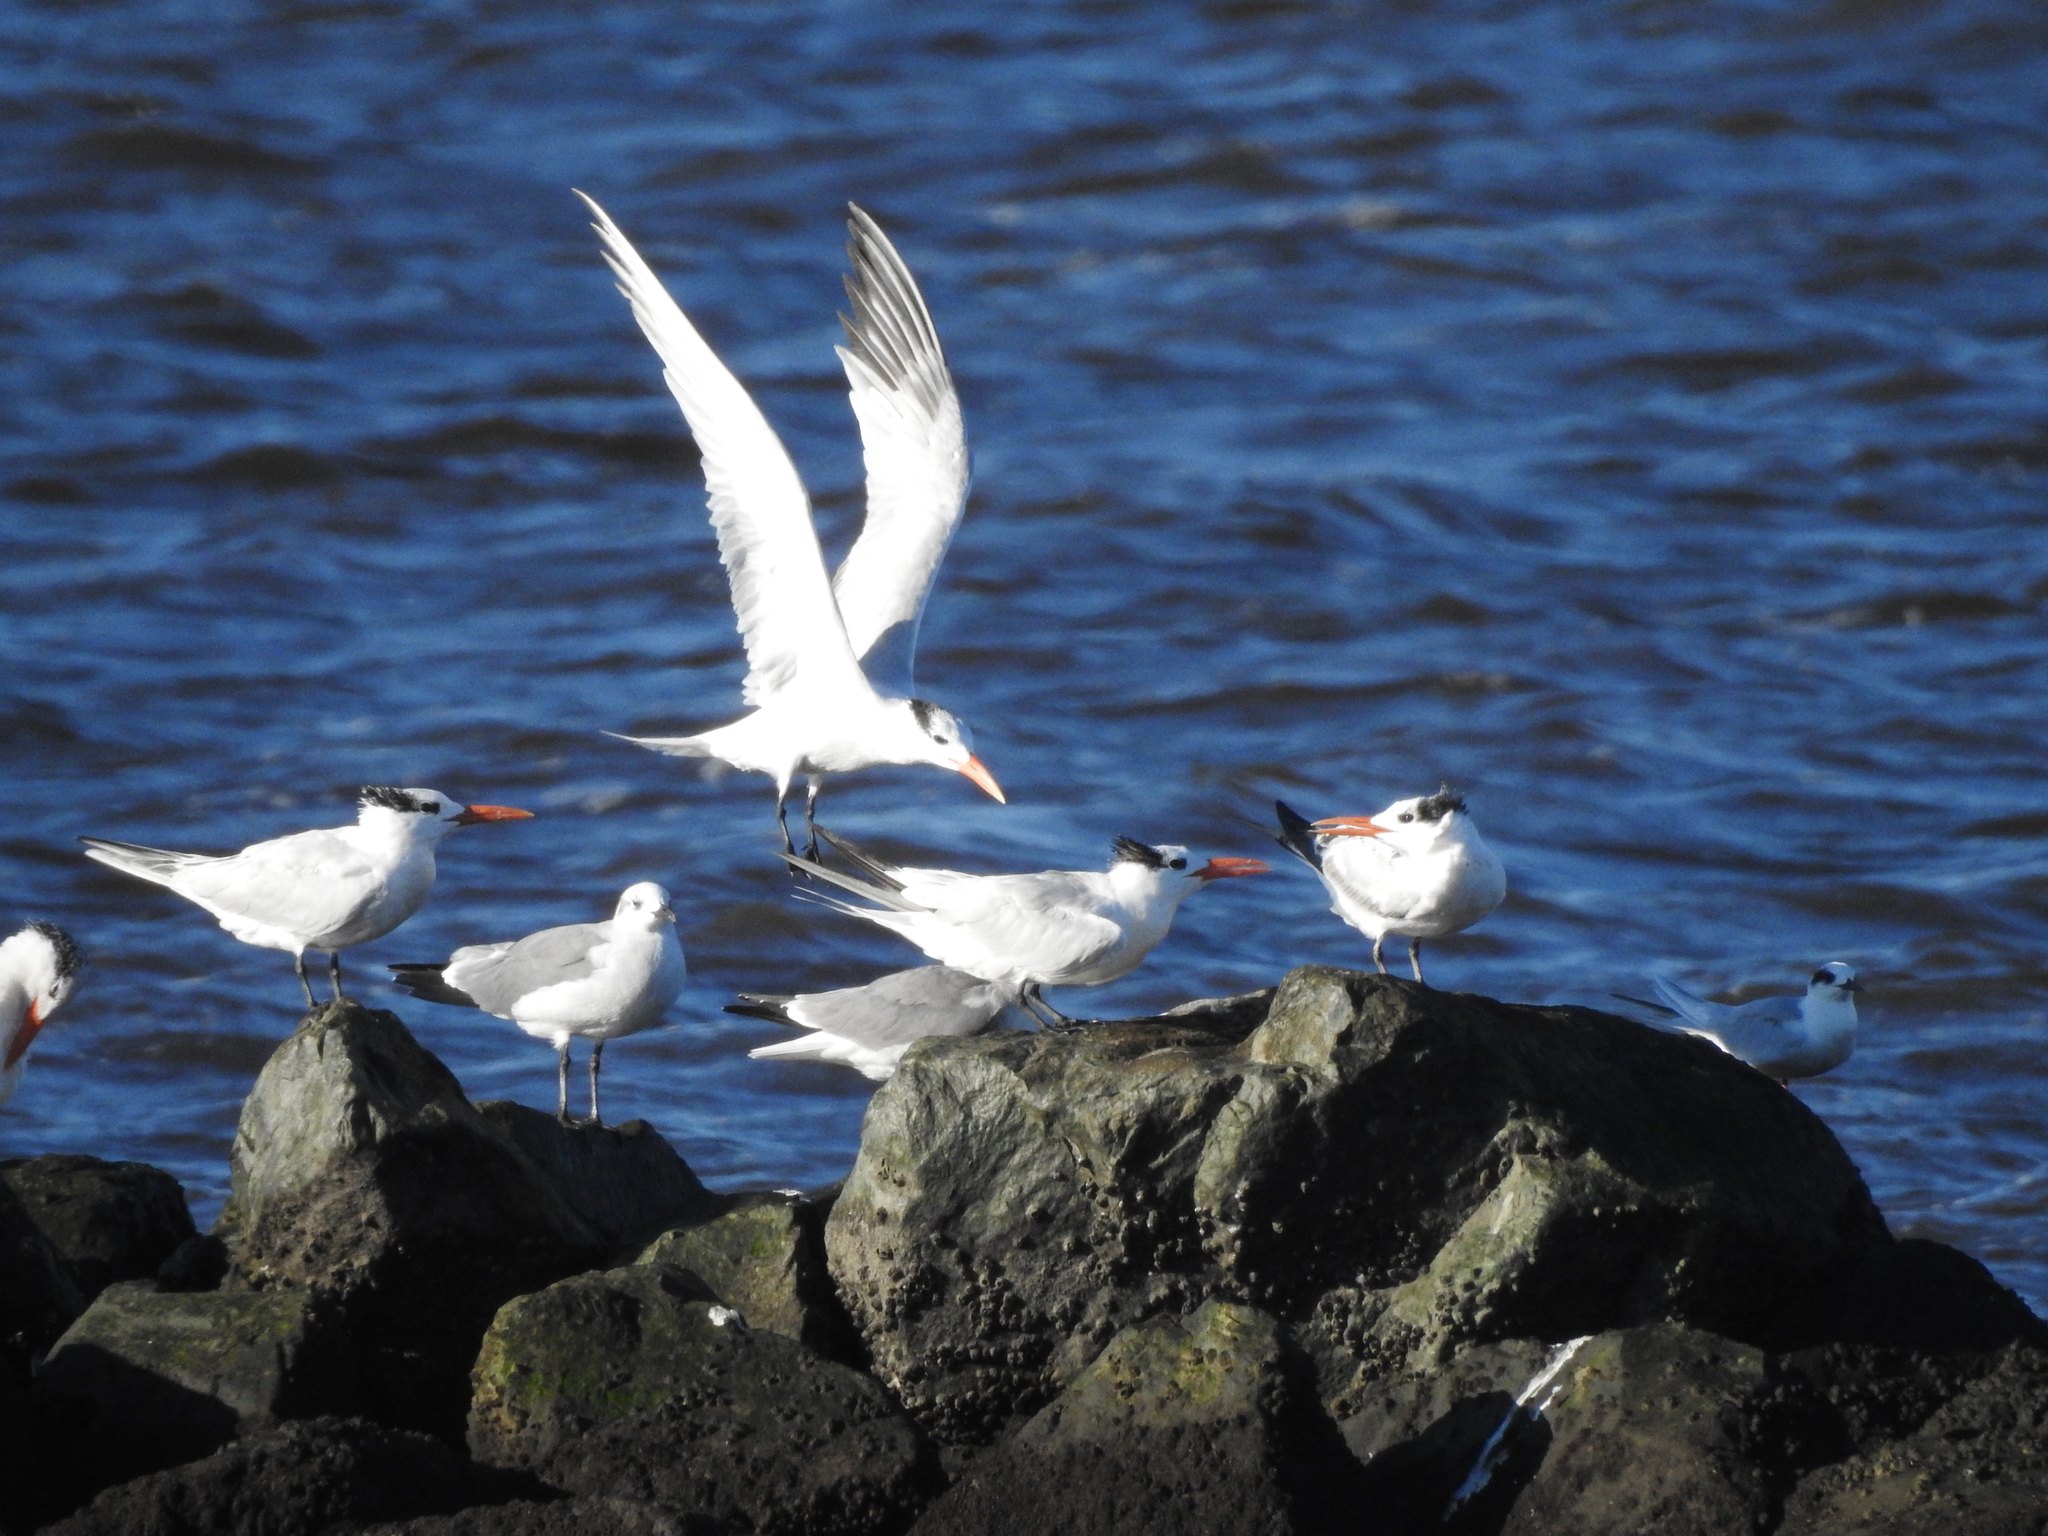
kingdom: Animalia
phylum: Chordata
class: Aves
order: Charadriiformes
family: Laridae
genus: Thalasseus
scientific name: Thalasseus maximus
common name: Royal tern
